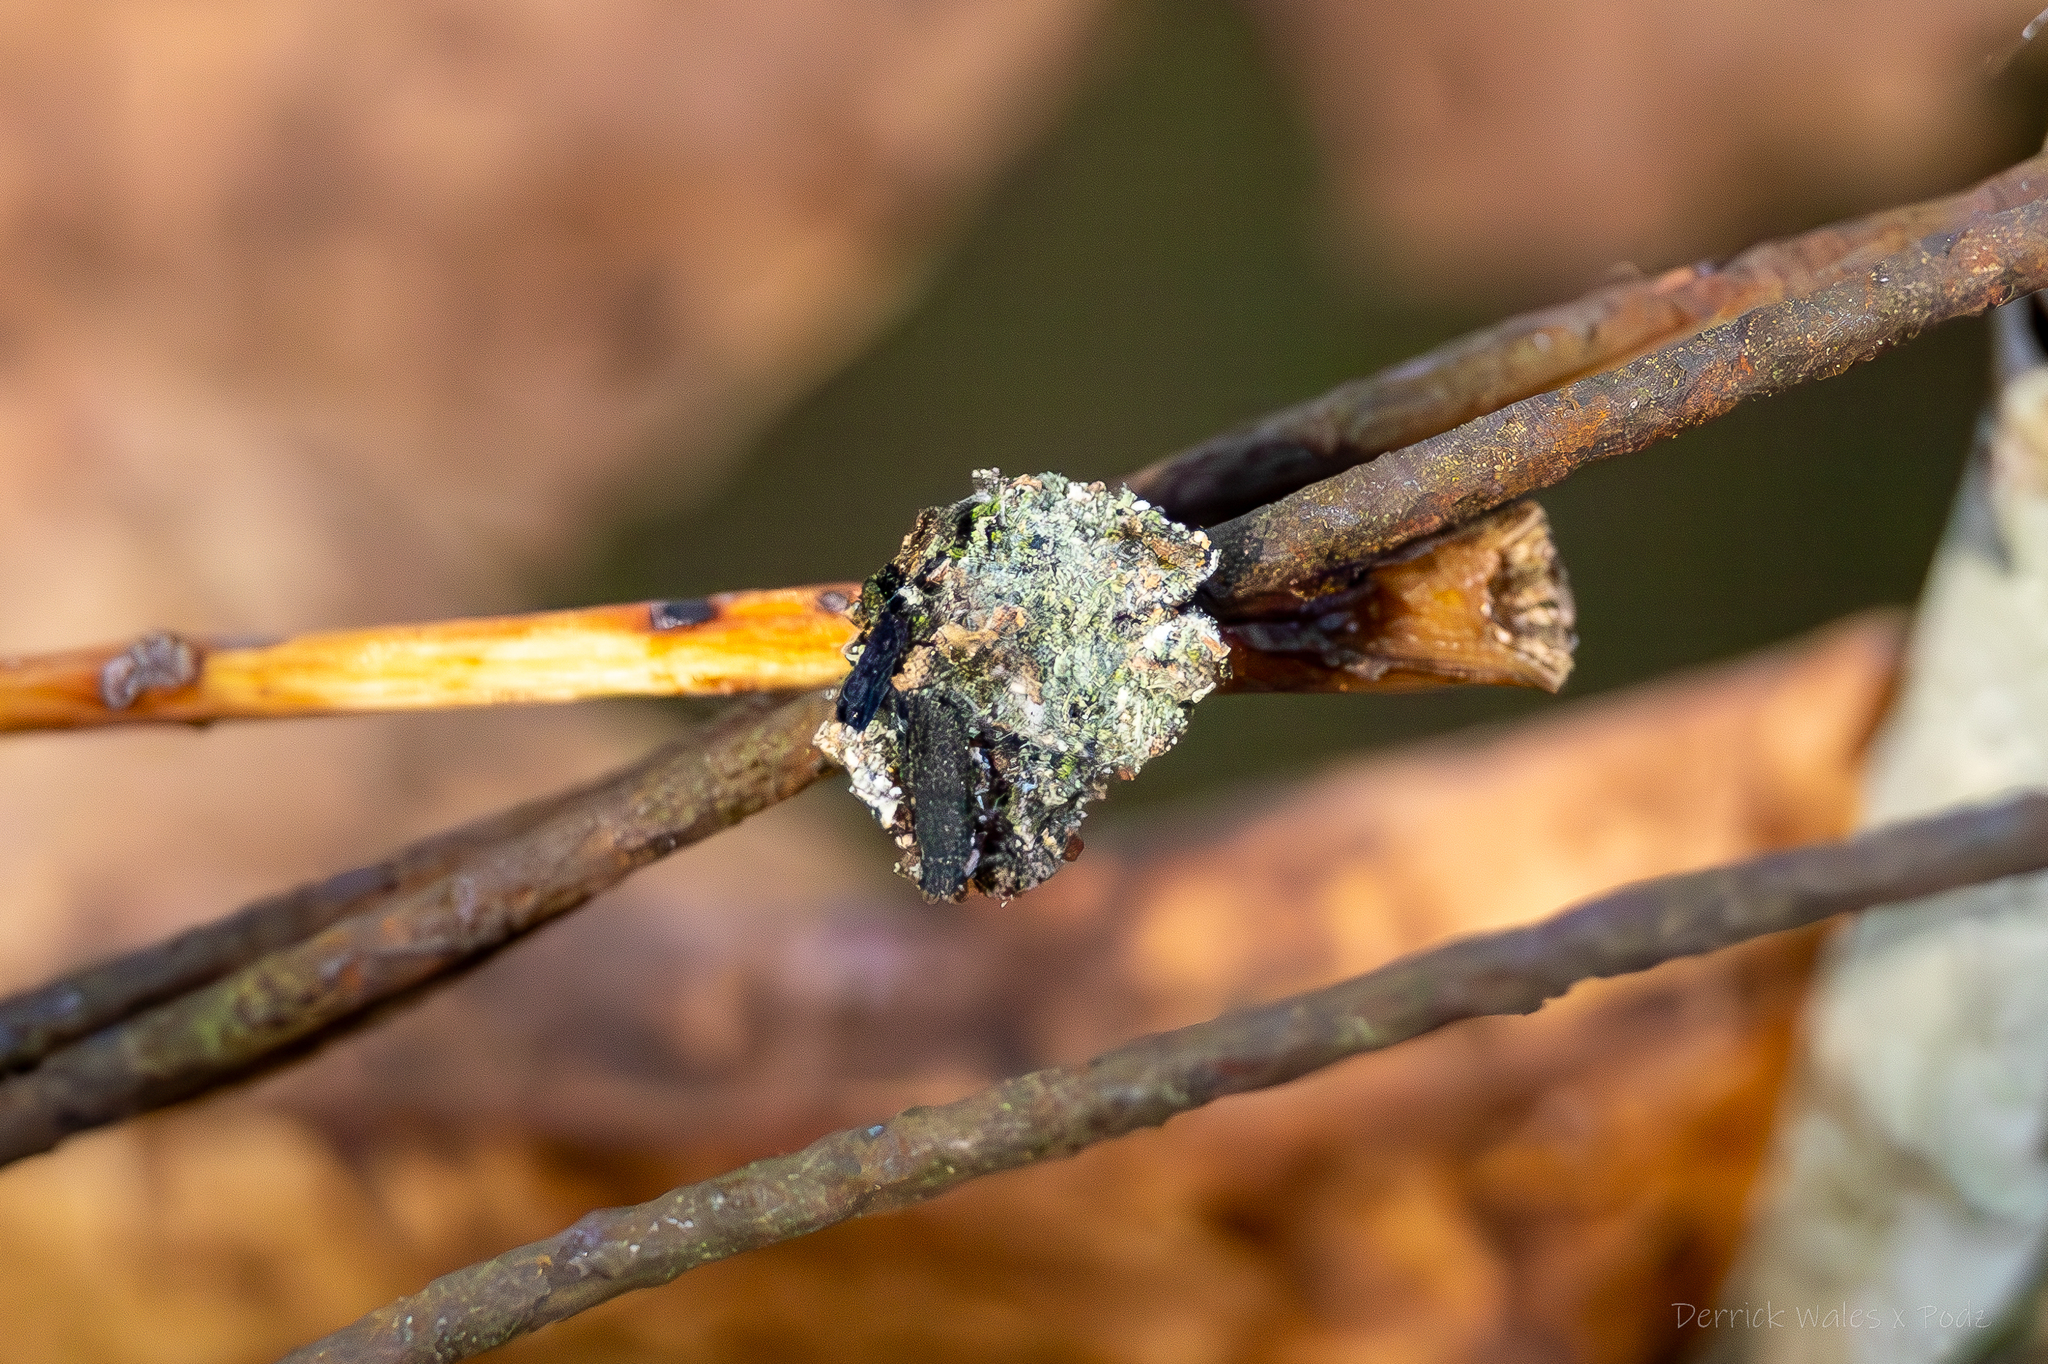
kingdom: Animalia
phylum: Arthropoda
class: Insecta
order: Neuroptera
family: Chrysopidae
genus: Leucochrysa
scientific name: Leucochrysa pavida
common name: Lichen-carrying green lacewing
